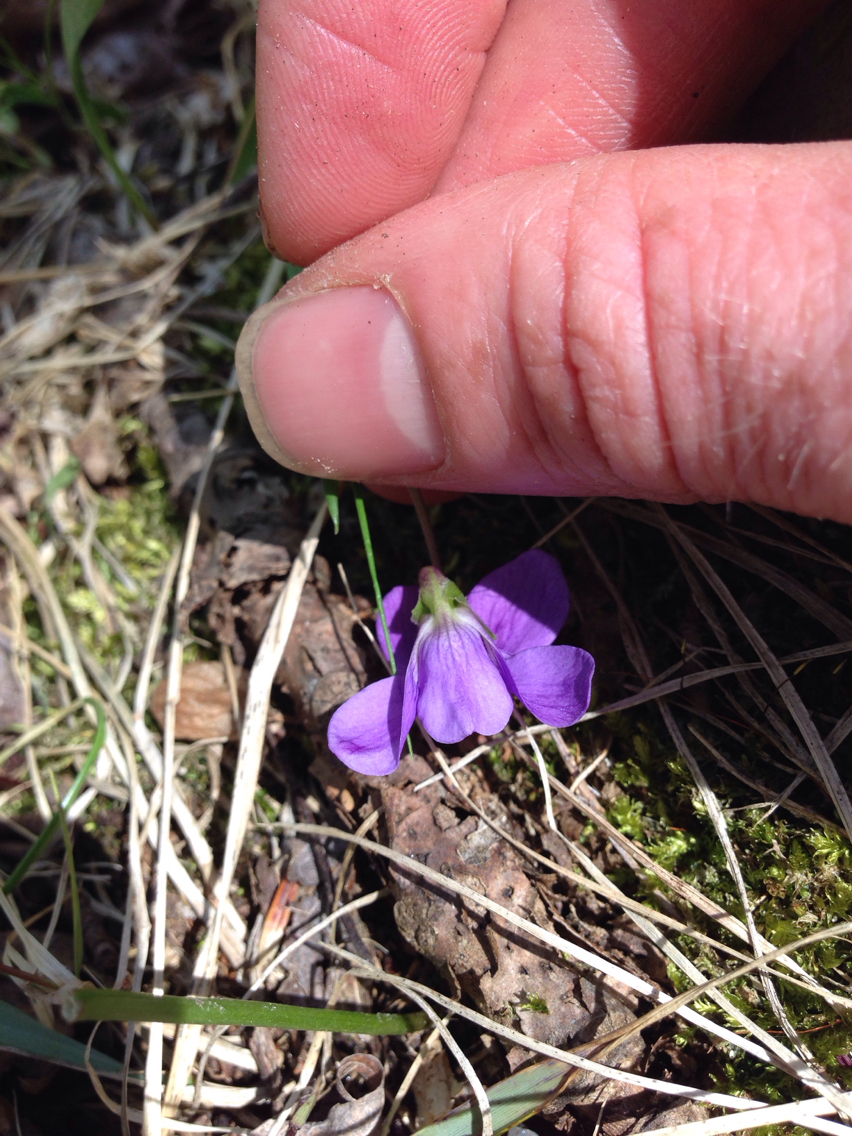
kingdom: Plantae
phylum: Tracheophyta
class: Magnoliopsida
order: Malpighiales
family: Violaceae
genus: Viola
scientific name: Viola sororia
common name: Dooryard violet
